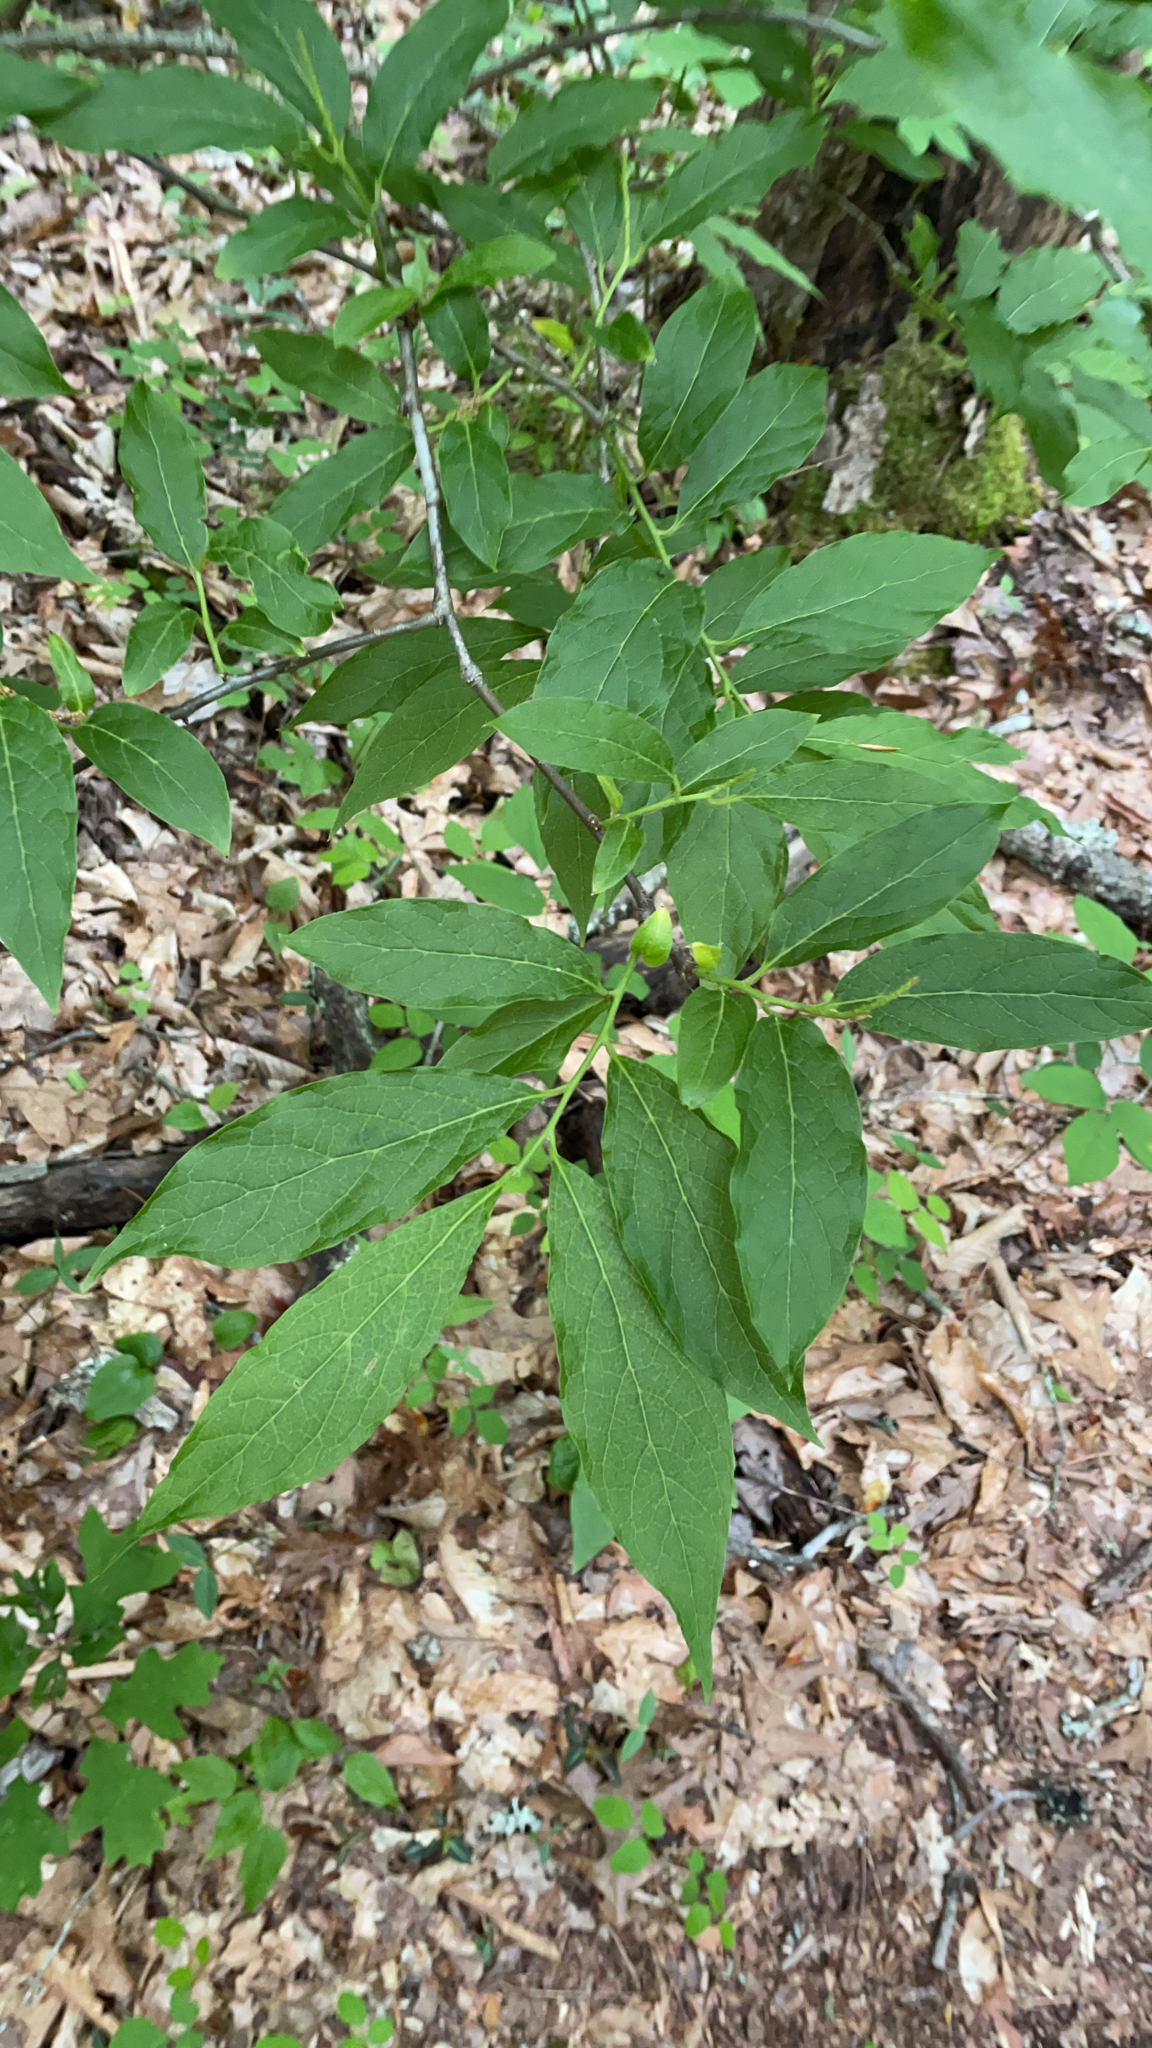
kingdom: Plantae
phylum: Tracheophyta
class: Magnoliopsida
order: Santalales
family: Cervantesiaceae
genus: Pyrularia
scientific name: Pyrularia pubera
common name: Oilnut
